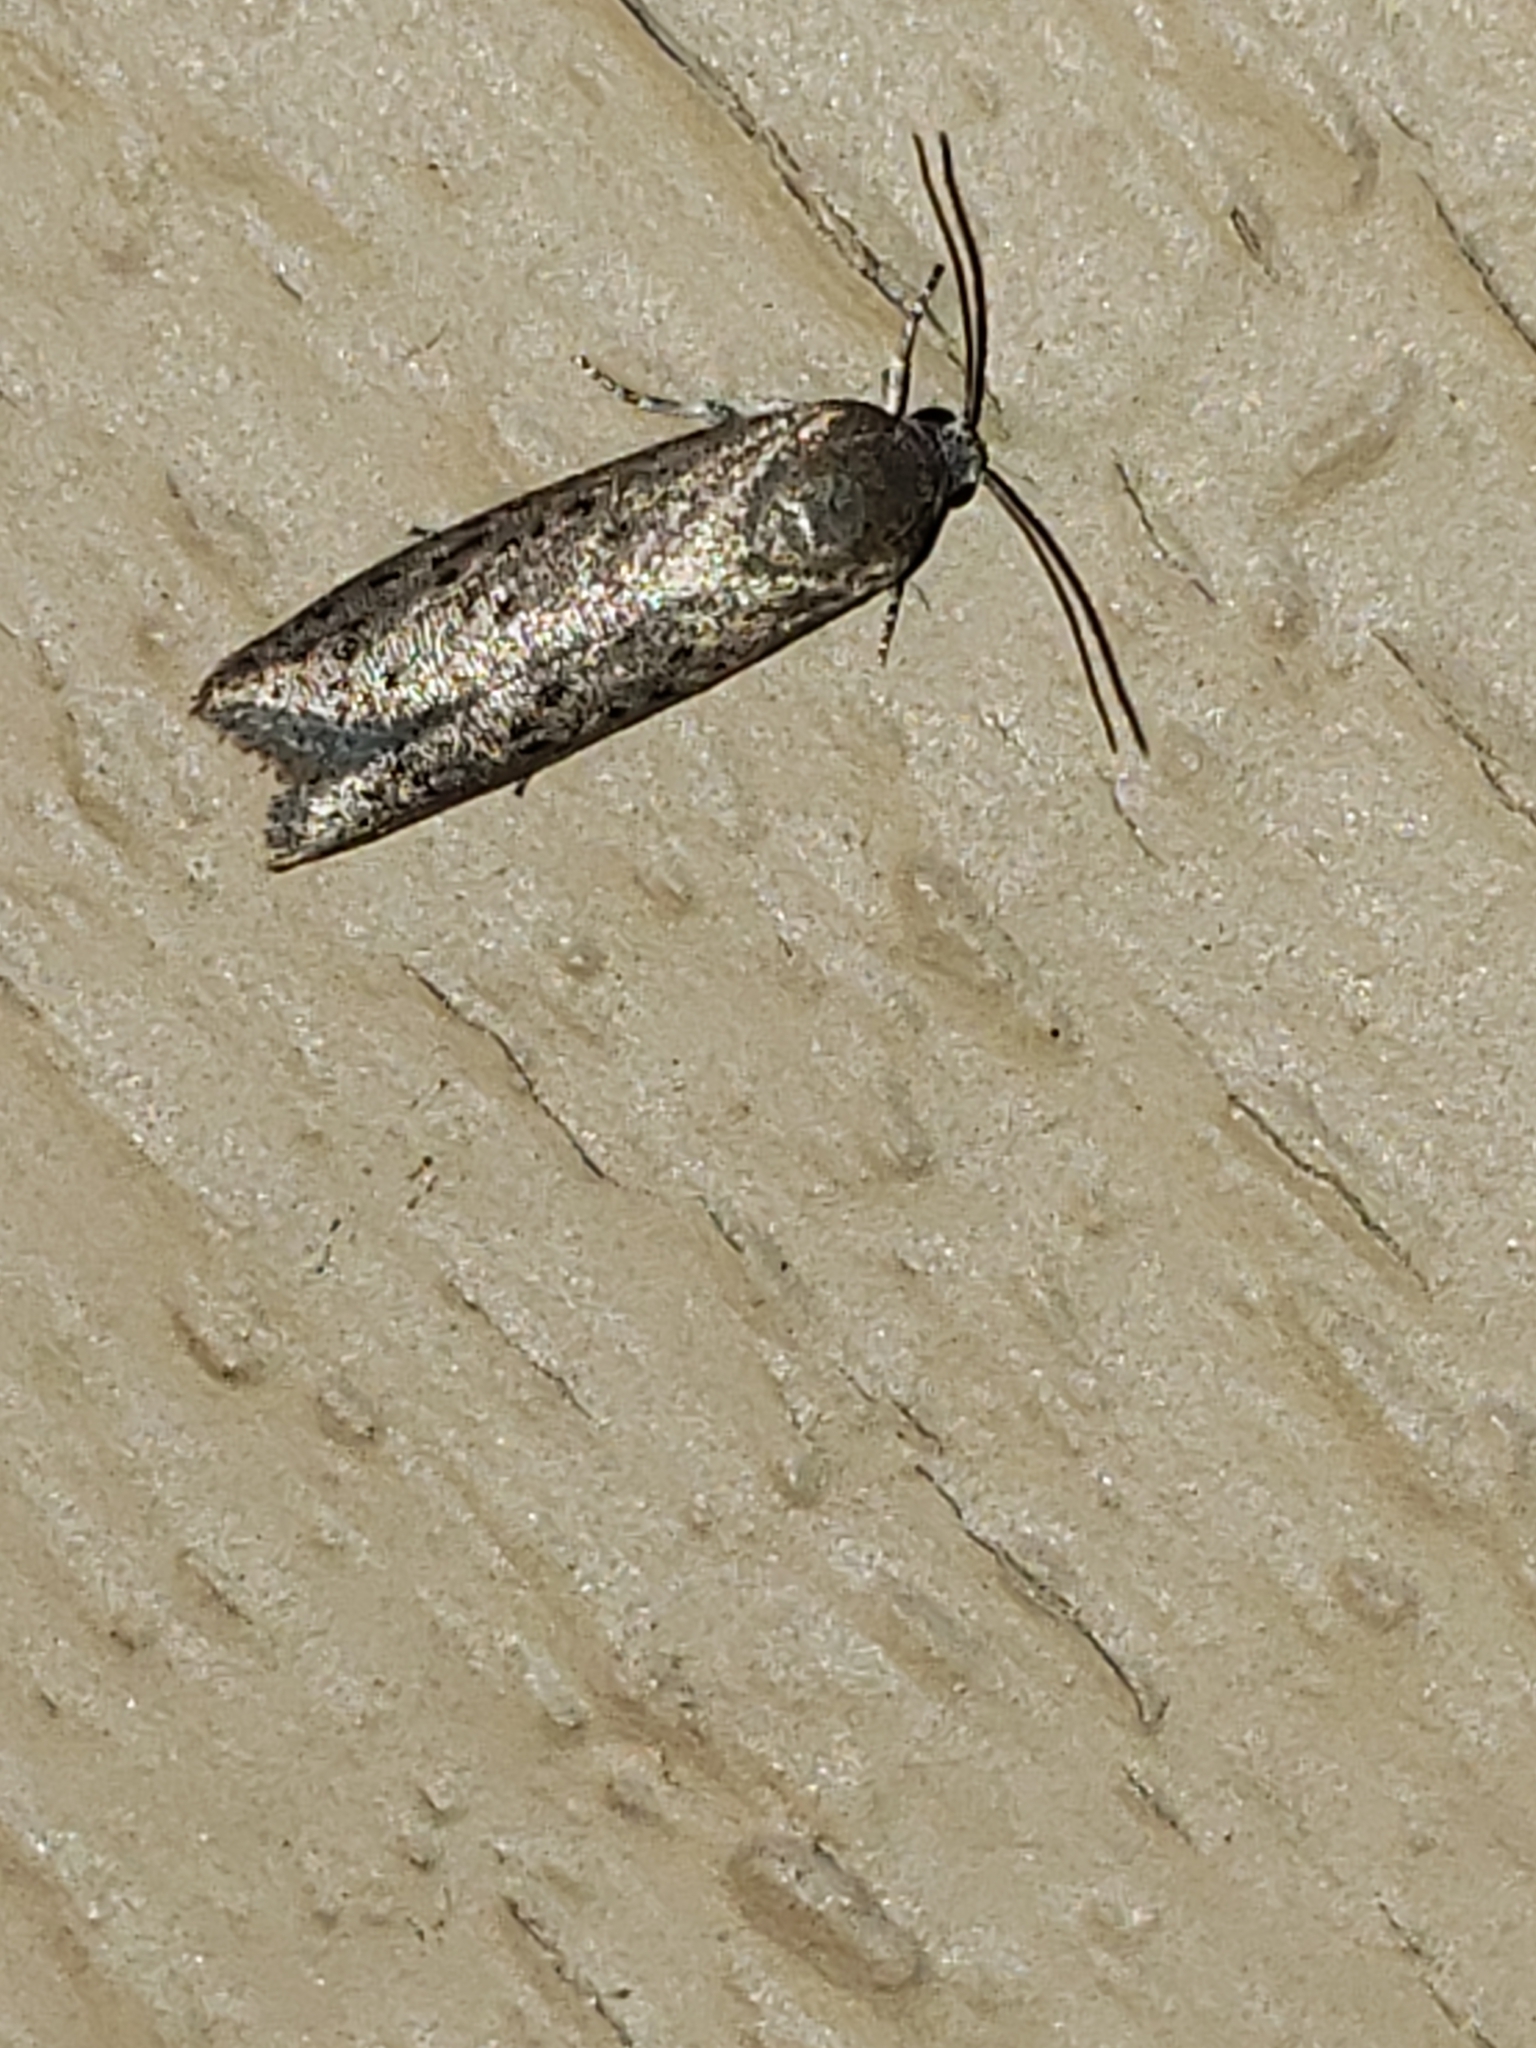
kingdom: Animalia
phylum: Arthropoda
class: Insecta
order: Lepidoptera
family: Galacticidae
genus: Homadaula
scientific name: Homadaula anisocentra
